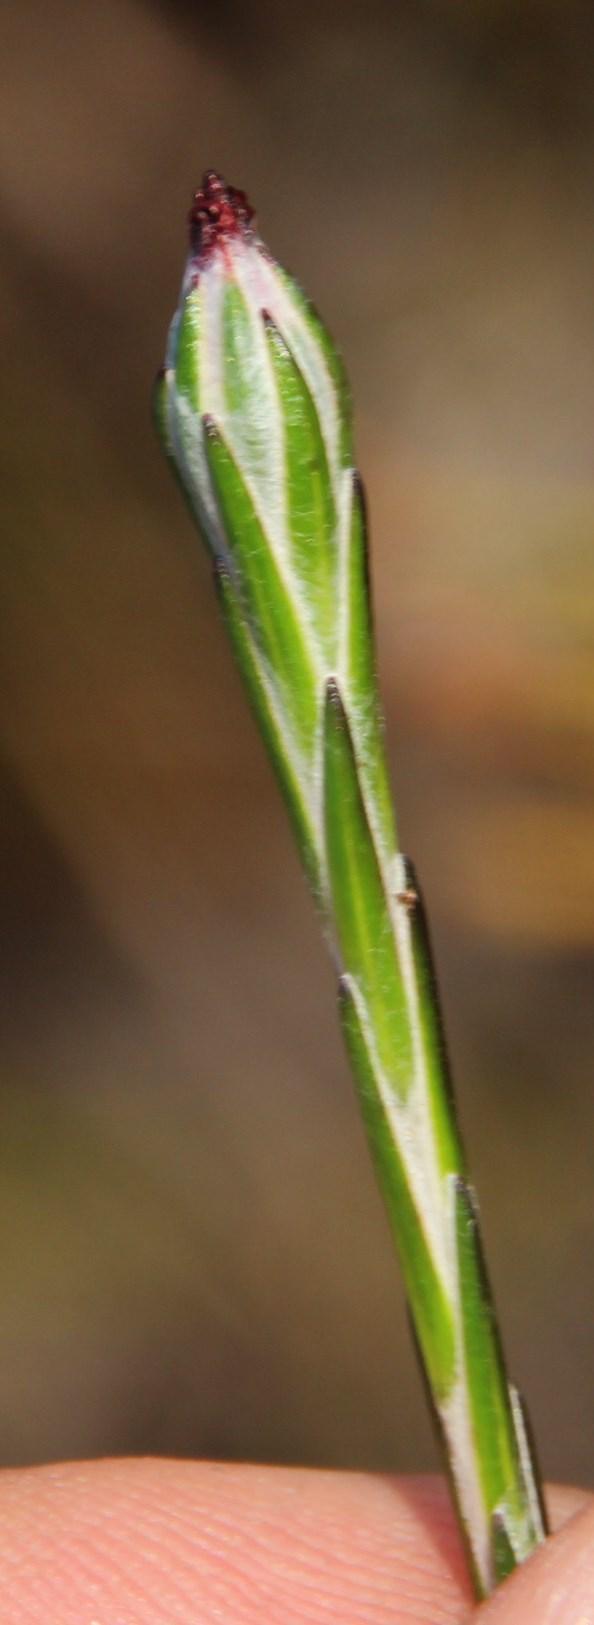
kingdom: Plantae
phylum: Tracheophyta
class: Magnoliopsida
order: Asterales
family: Asteraceae
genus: Edmondia
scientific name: Edmondia sesamoides
